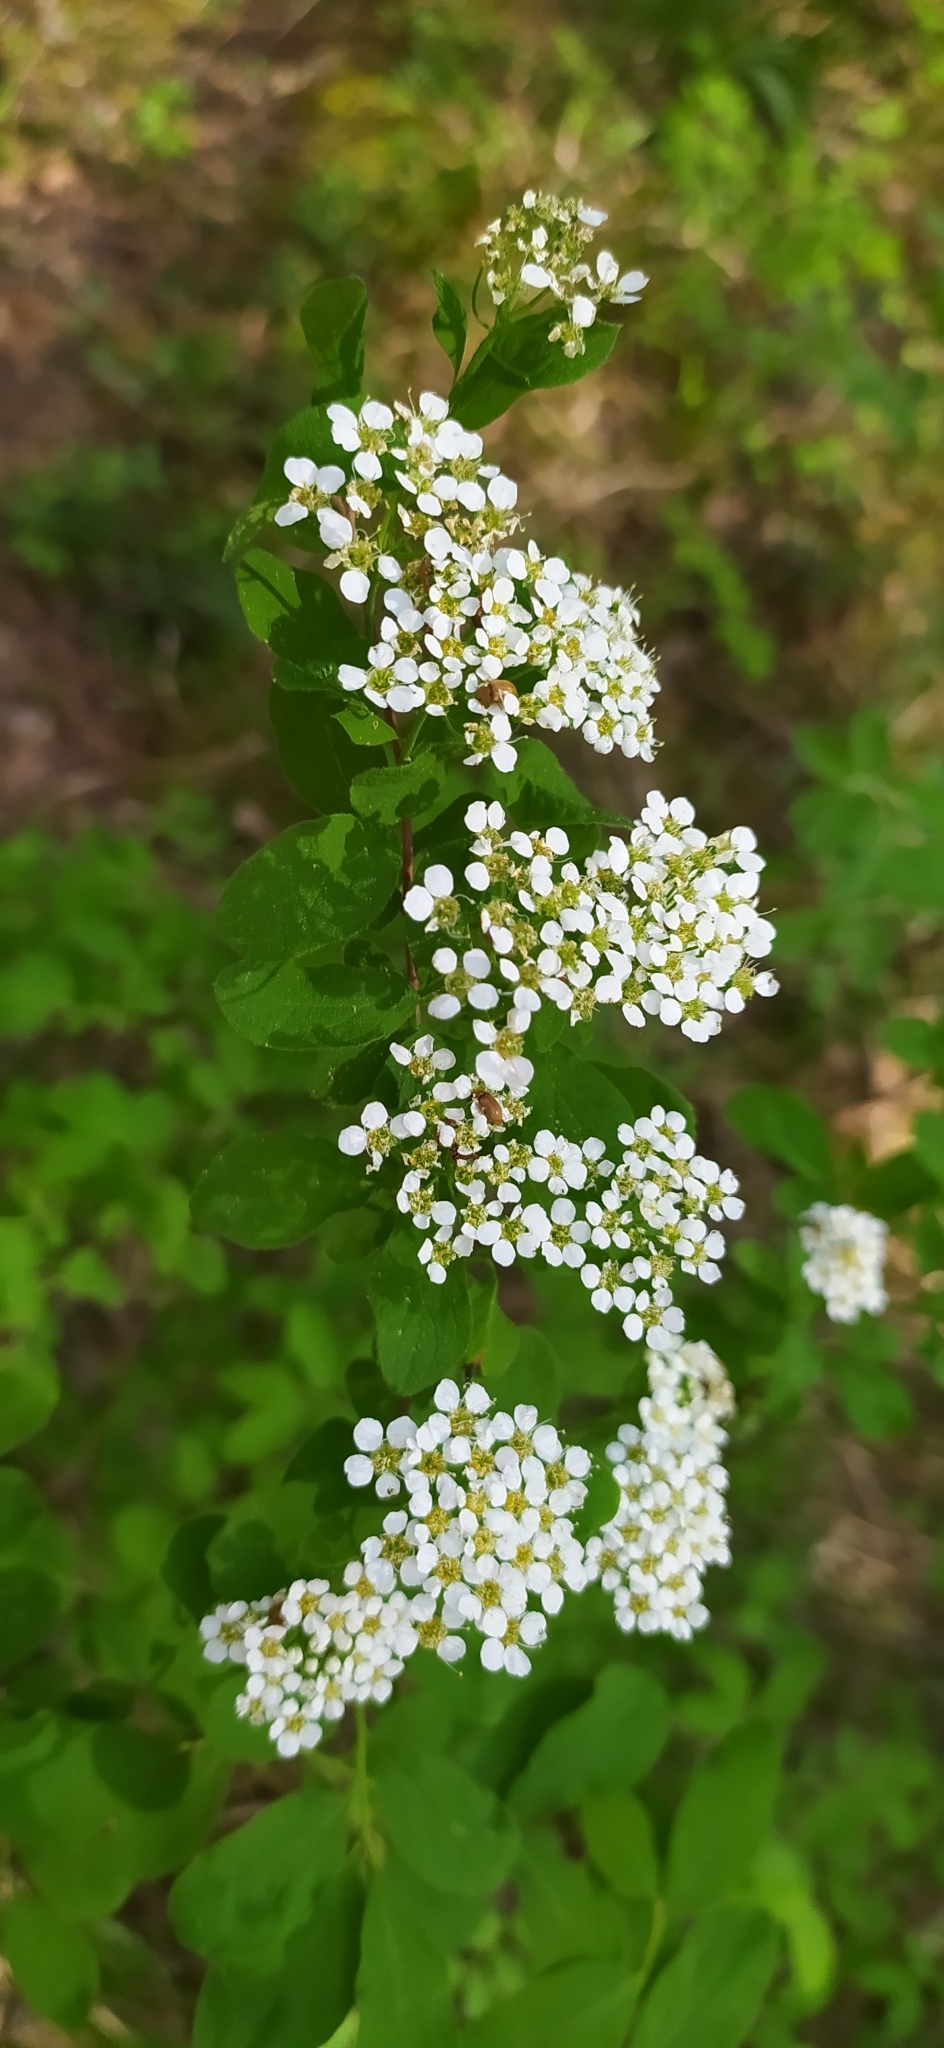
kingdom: Plantae
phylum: Tracheophyta
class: Magnoliopsida
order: Rosales
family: Rosaceae
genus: Spiraea
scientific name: Spiraea media
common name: Russian spiraea
